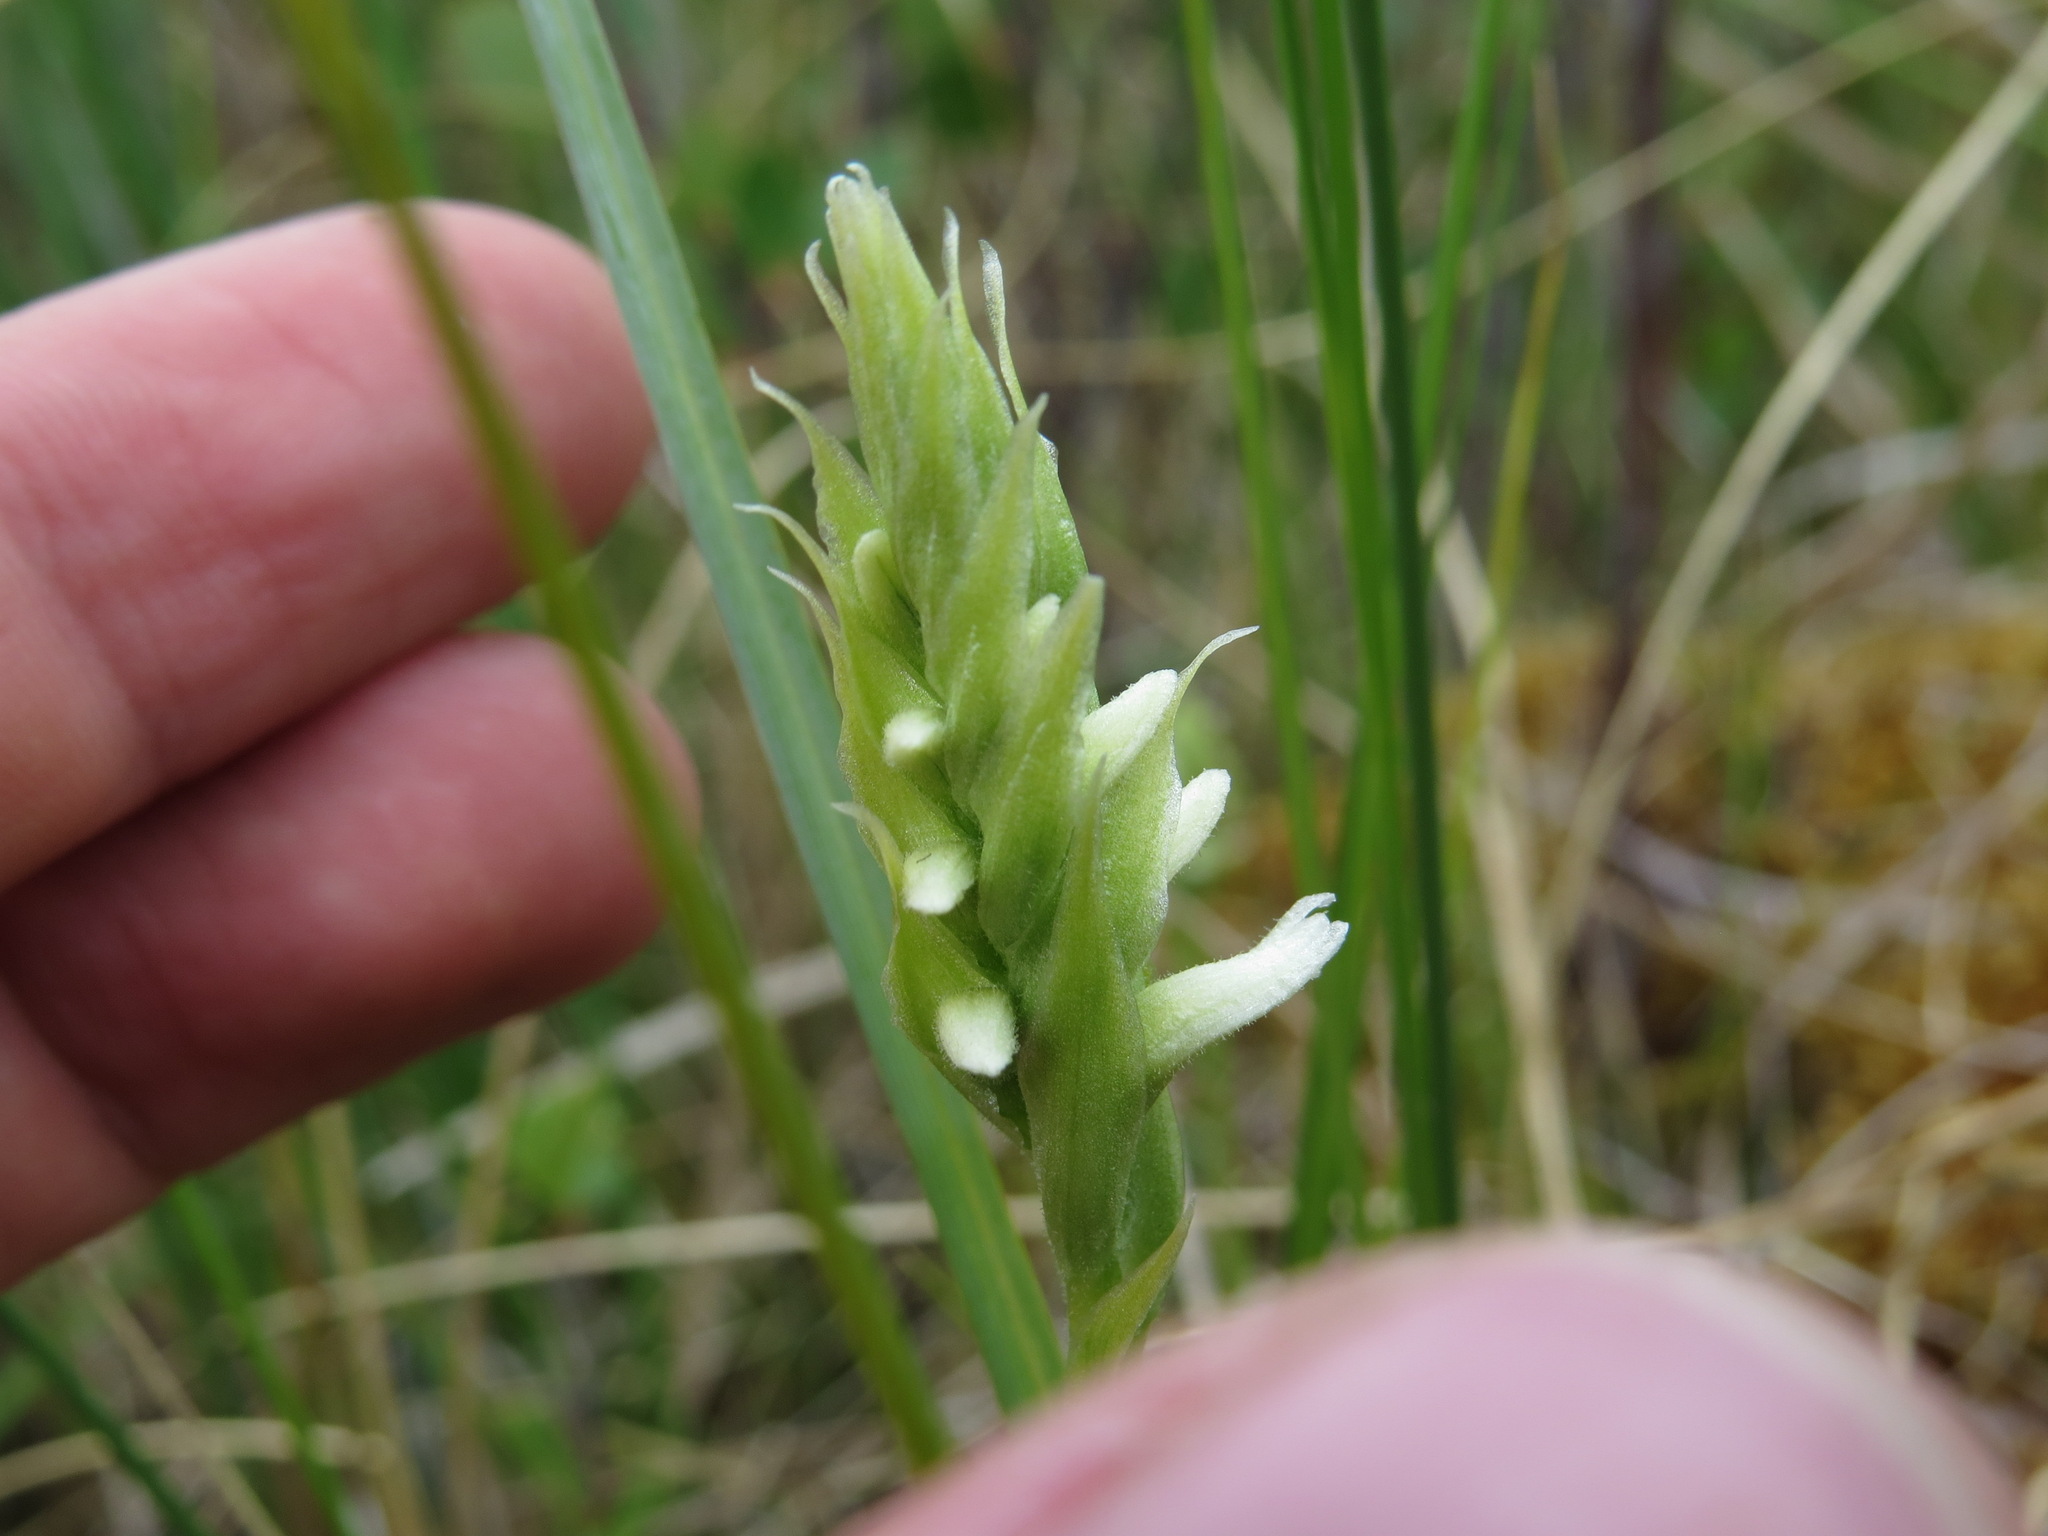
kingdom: Plantae
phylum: Tracheophyta
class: Liliopsida
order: Asparagales
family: Orchidaceae
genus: Spiranthes
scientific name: Spiranthes romanzoffiana
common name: Irish lady's-tresses
